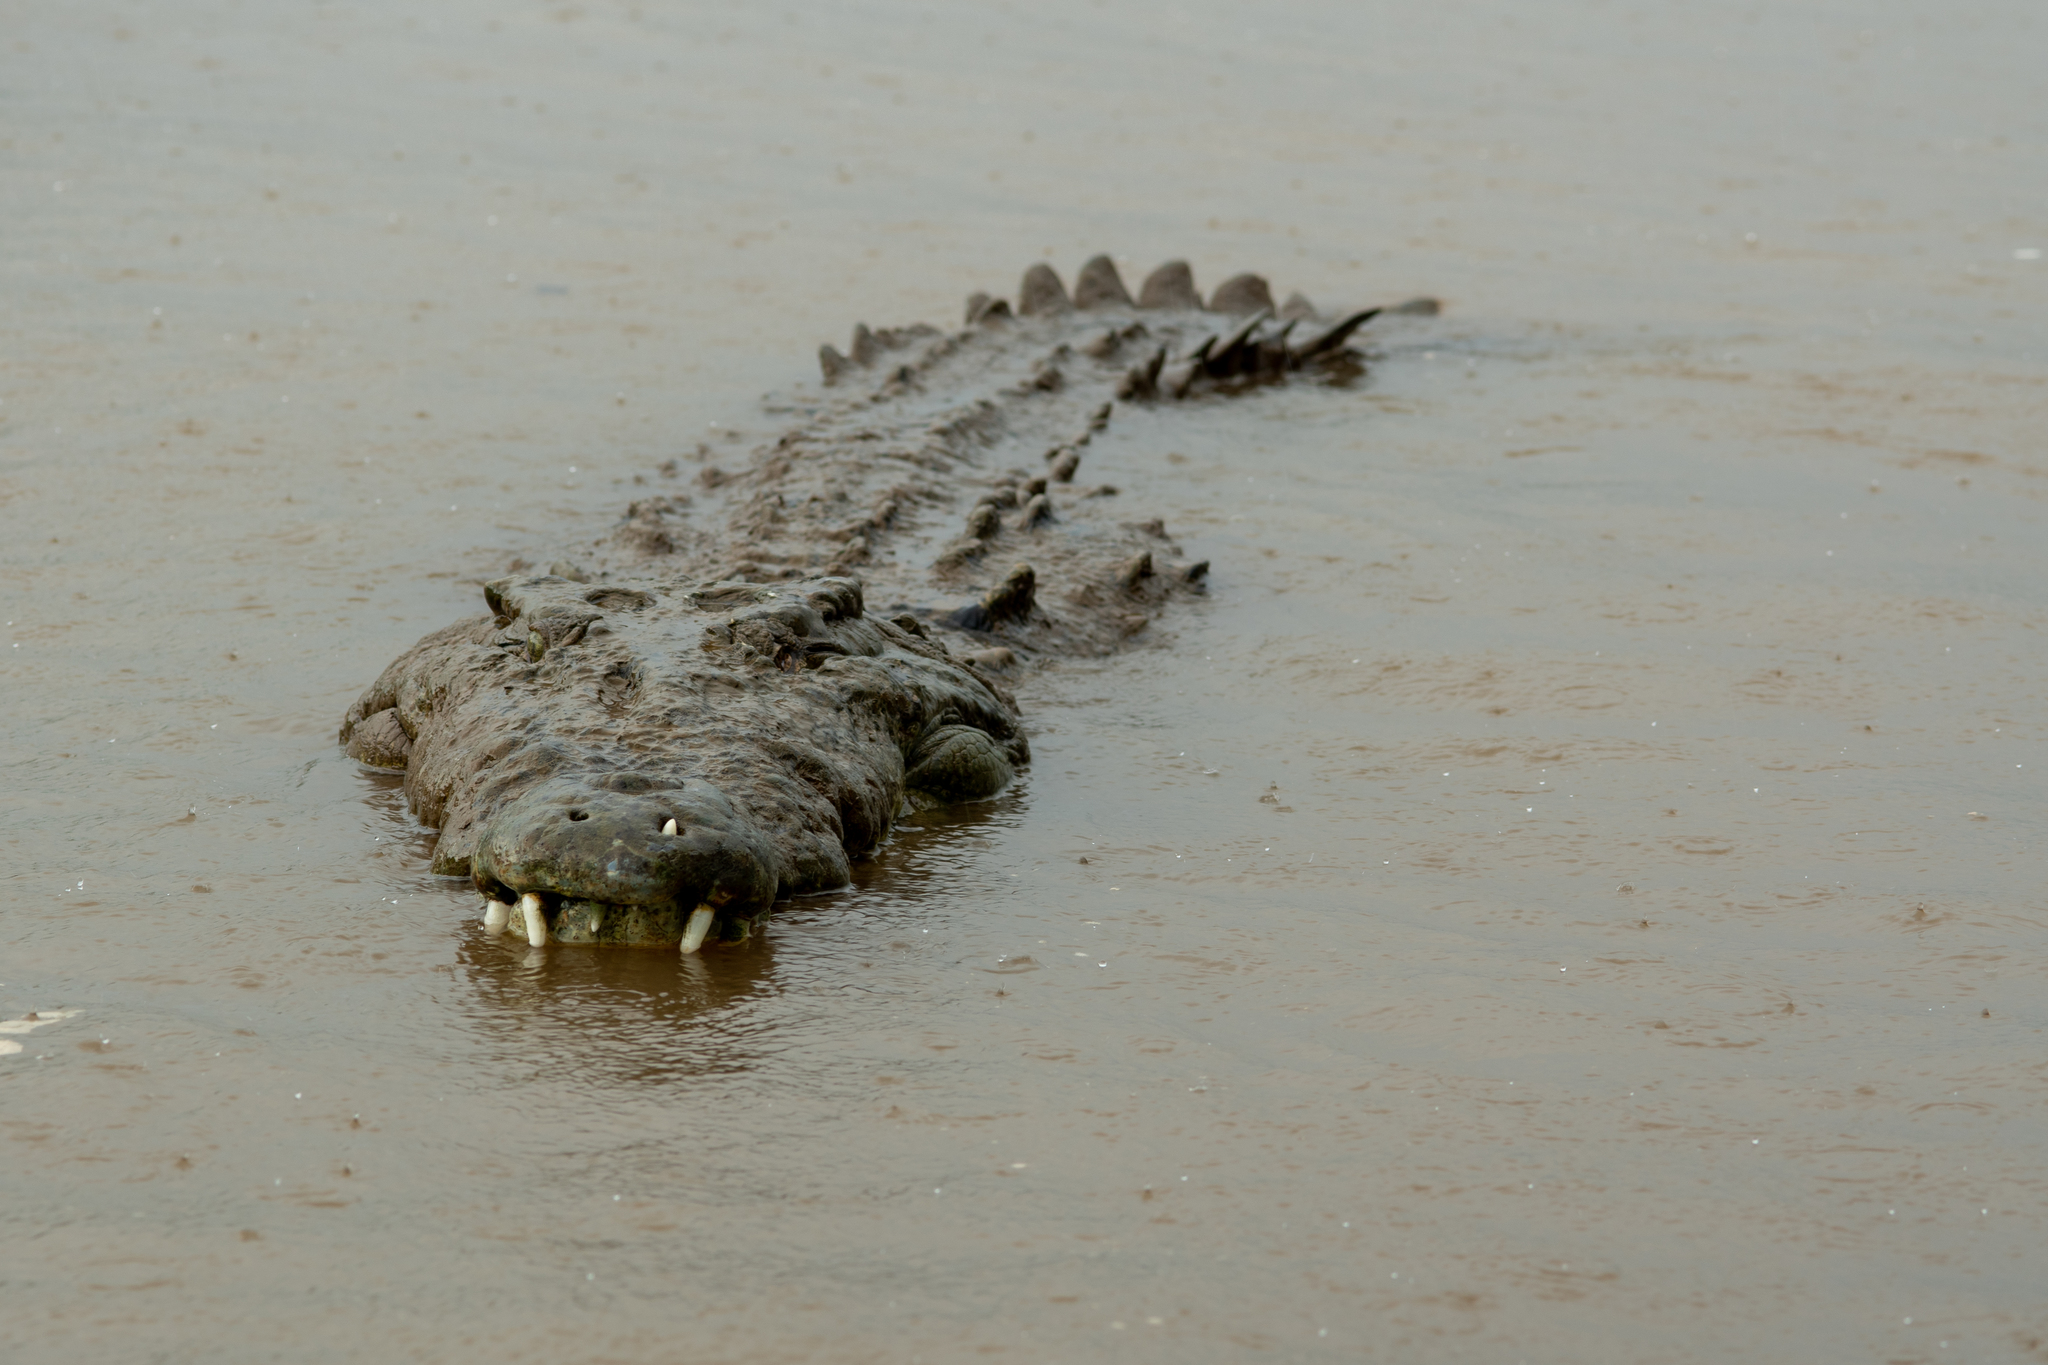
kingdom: Animalia
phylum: Chordata
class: Crocodylia
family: Crocodylidae
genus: Crocodylus
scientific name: Crocodylus acutus
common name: American crocodile
